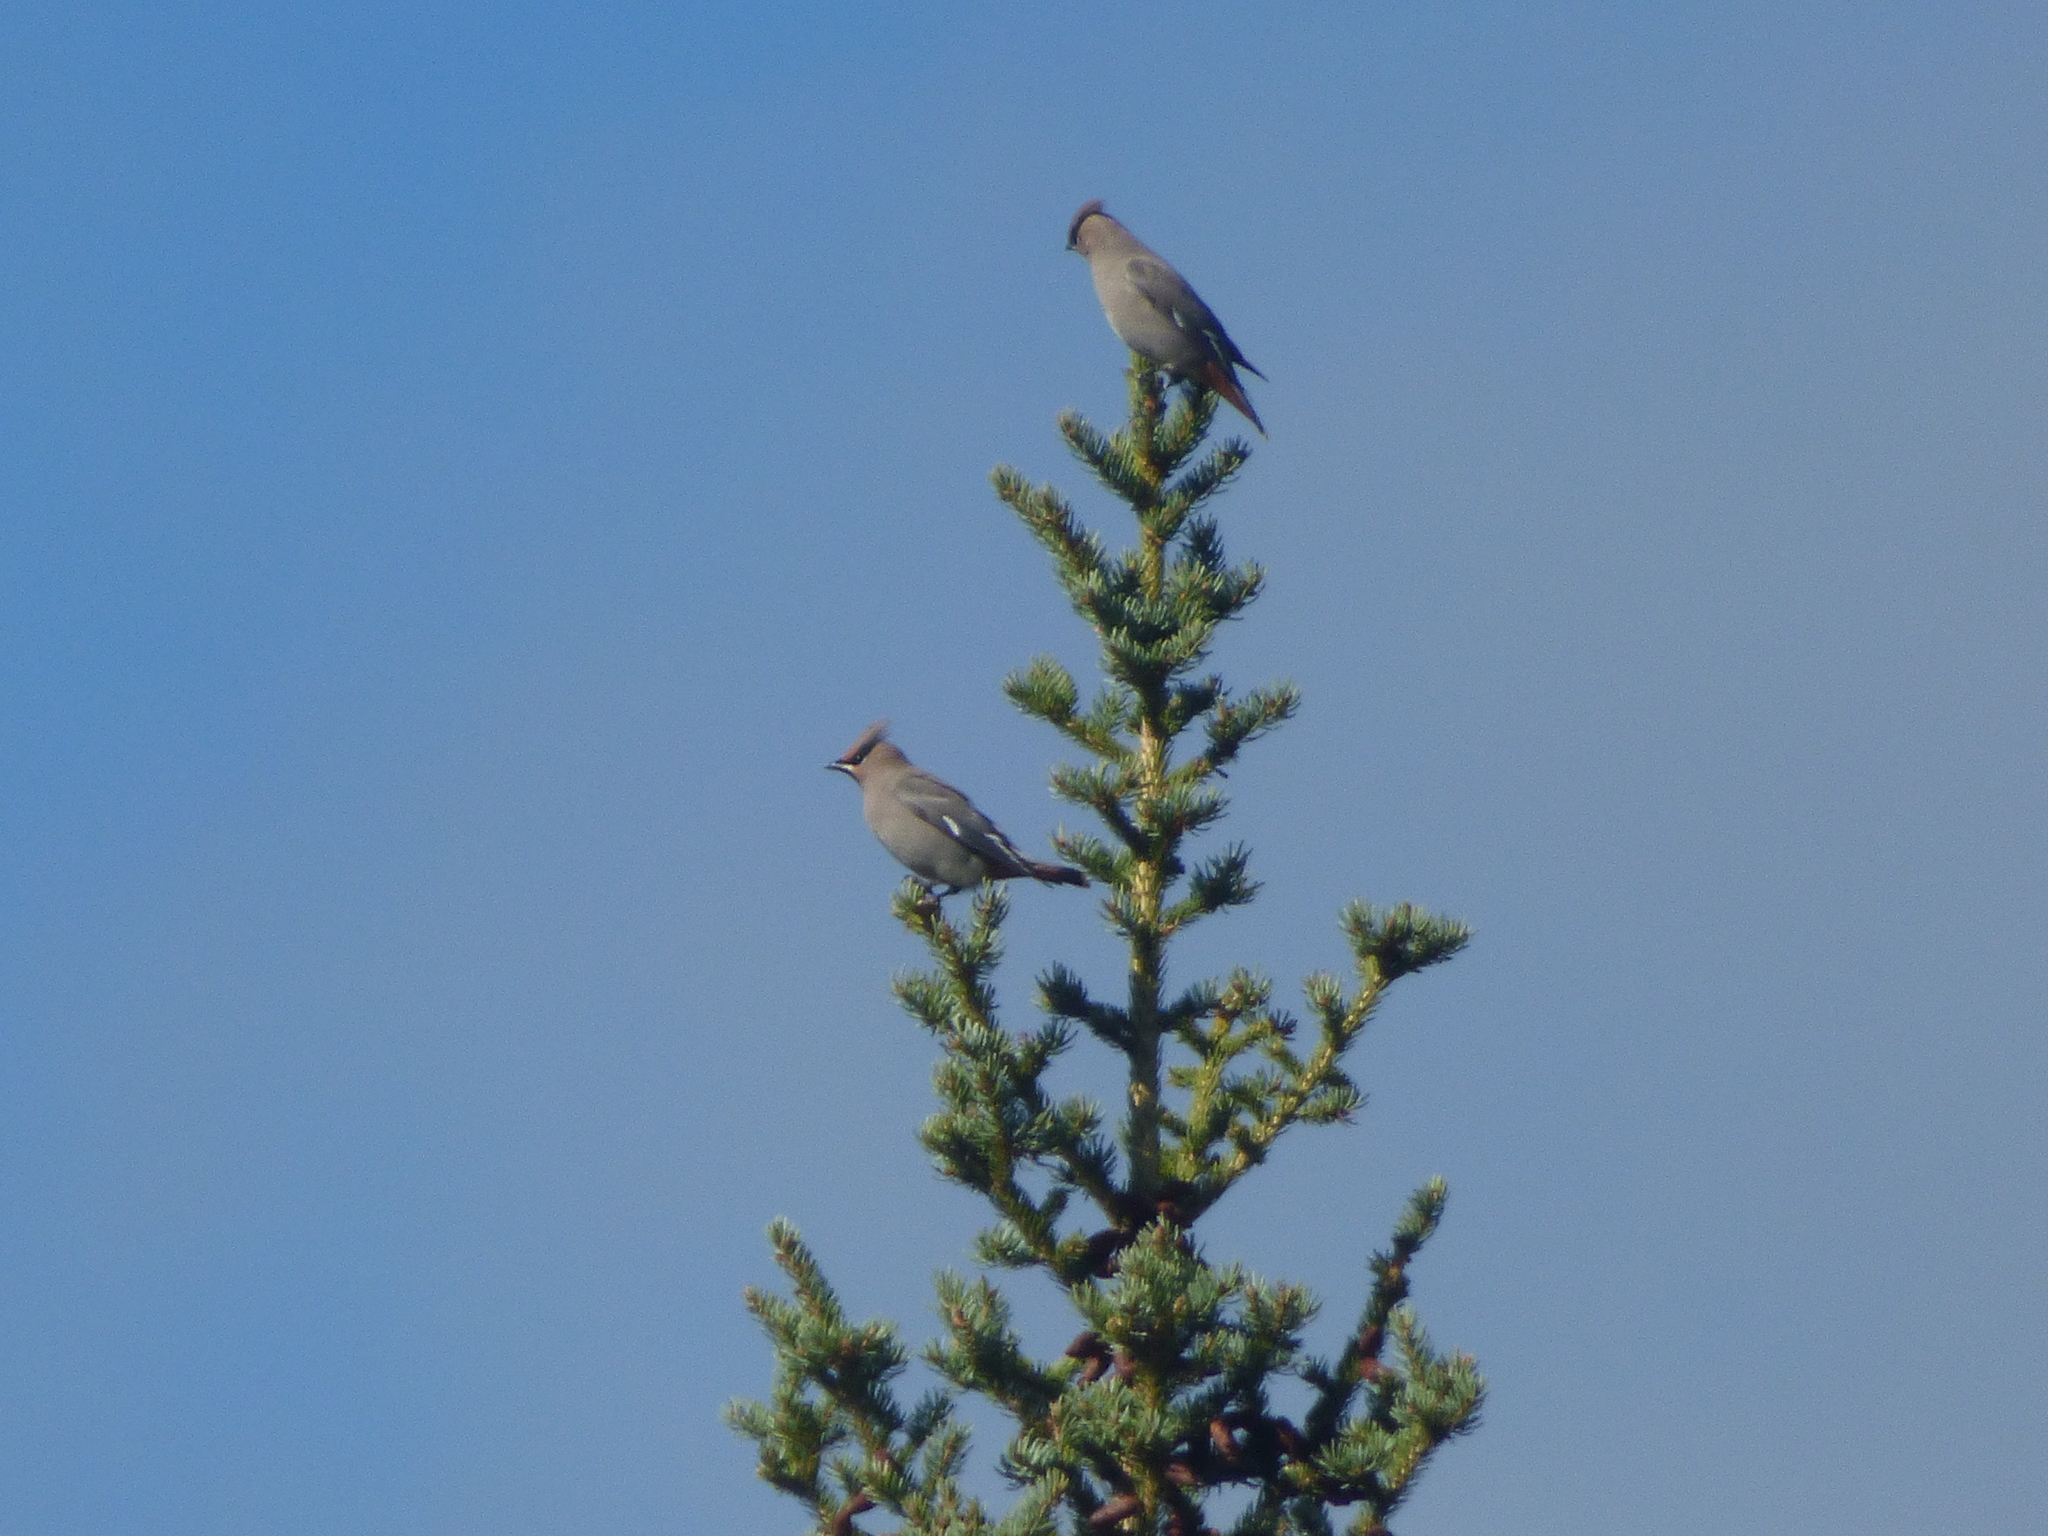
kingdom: Animalia
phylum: Chordata
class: Aves
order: Passeriformes
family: Bombycillidae
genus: Bombycilla
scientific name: Bombycilla garrulus
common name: Bohemian waxwing
